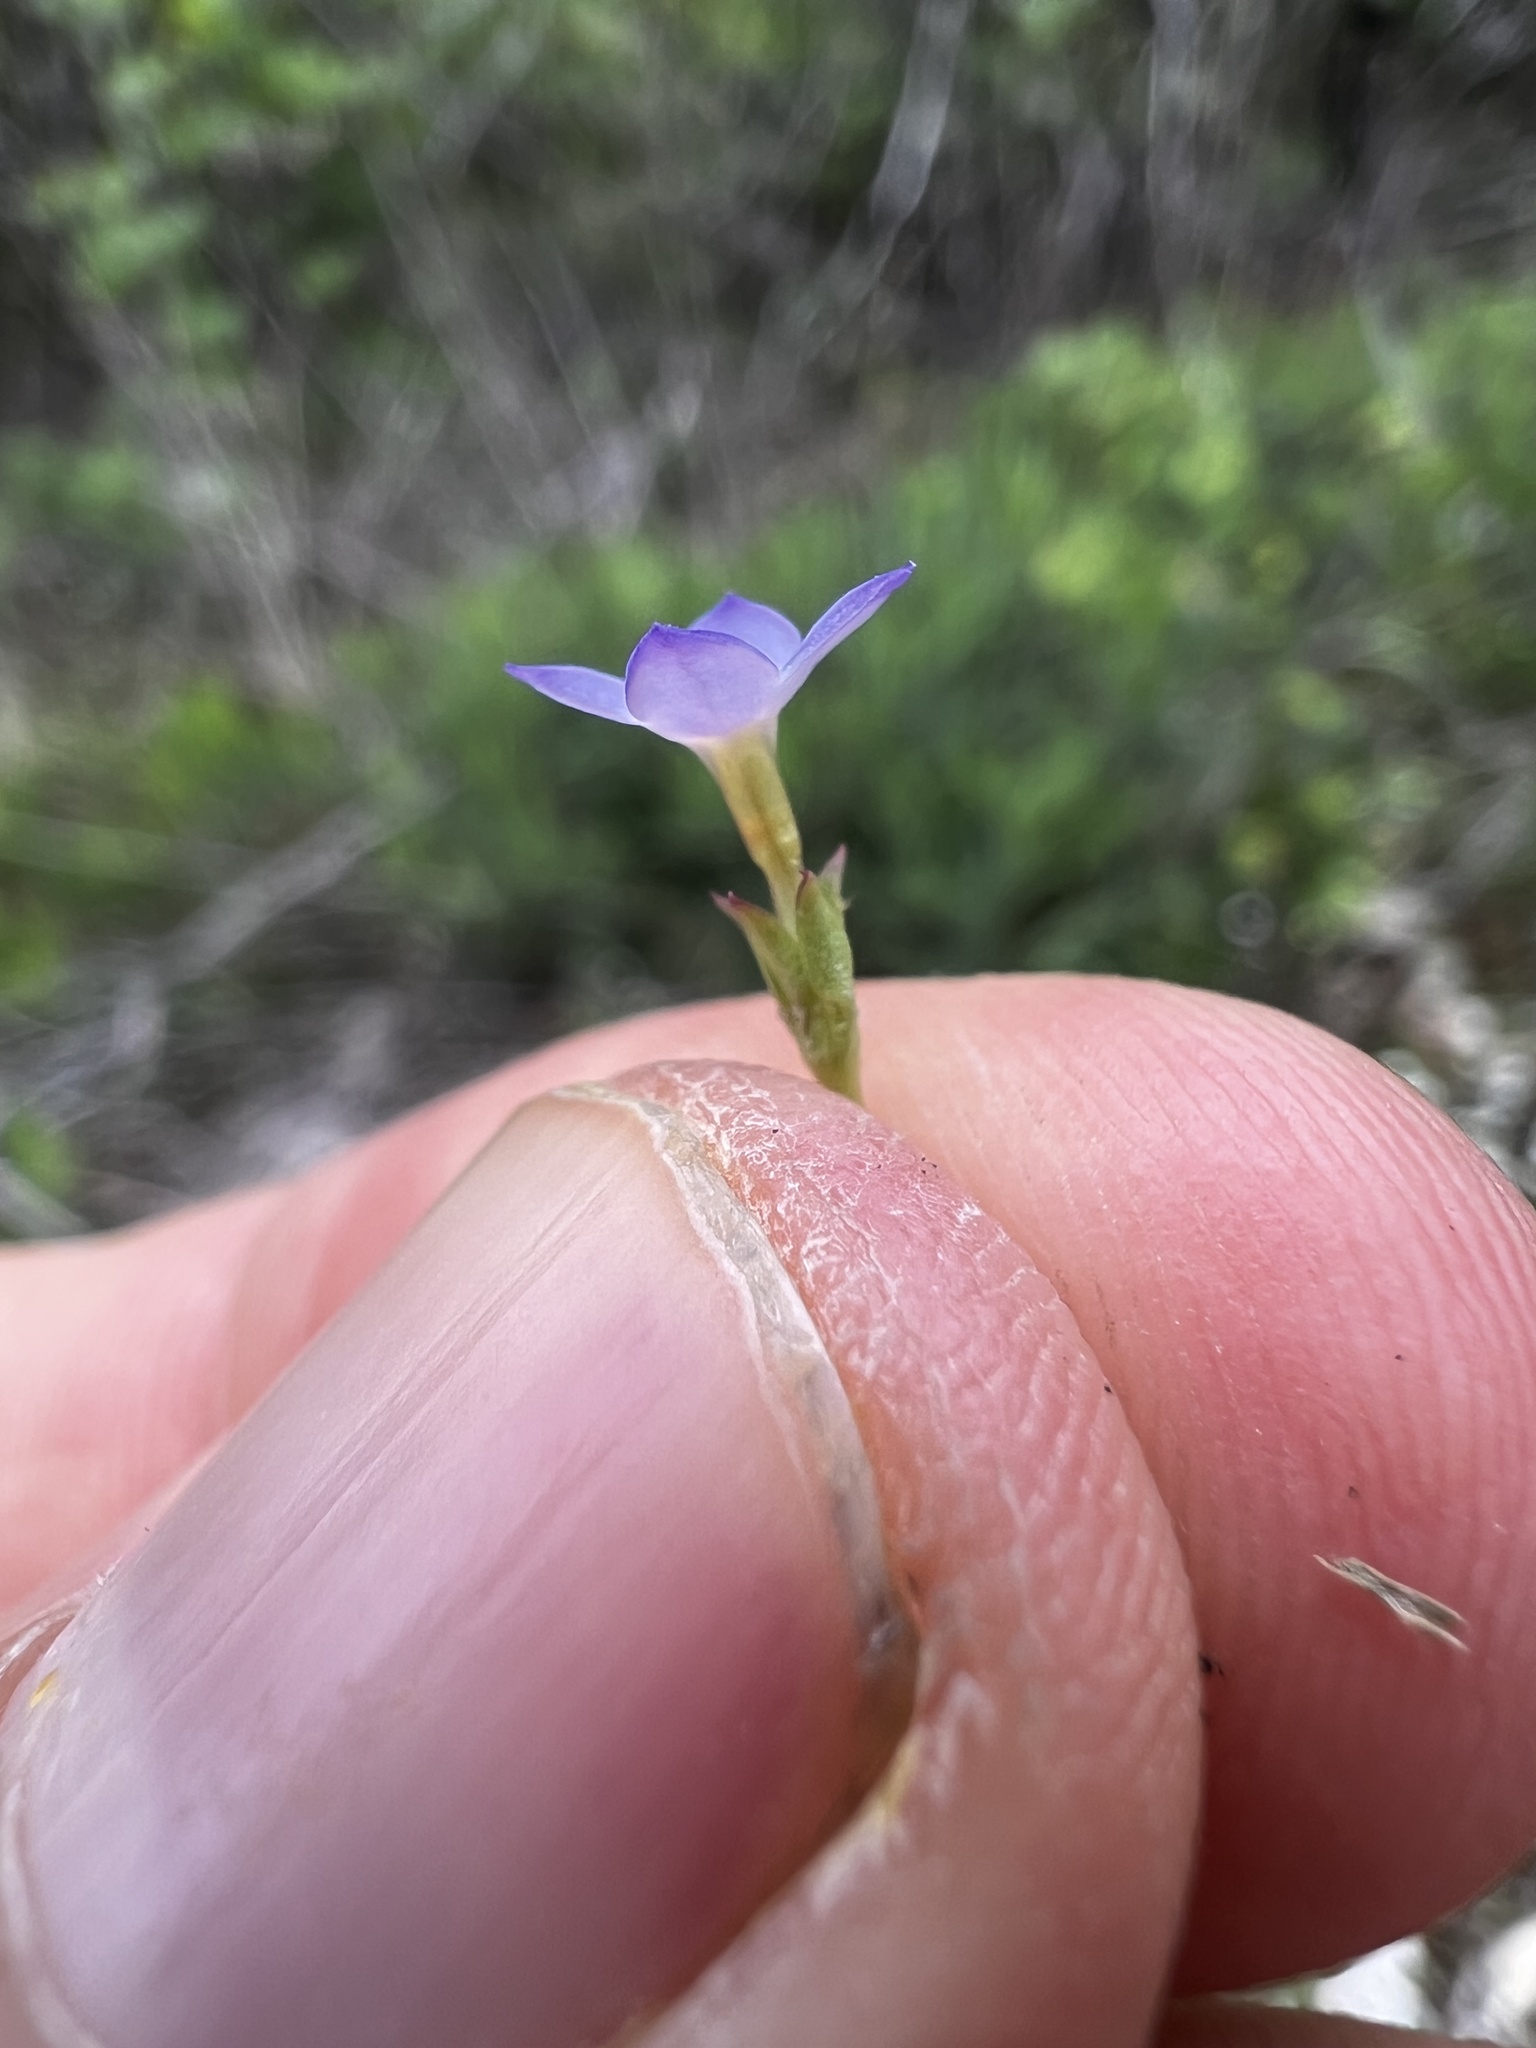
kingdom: Plantae
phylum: Tracheophyta
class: Magnoliopsida
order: Gentianales
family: Rubiaceae
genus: Houstonia
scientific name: Houstonia pusilla
